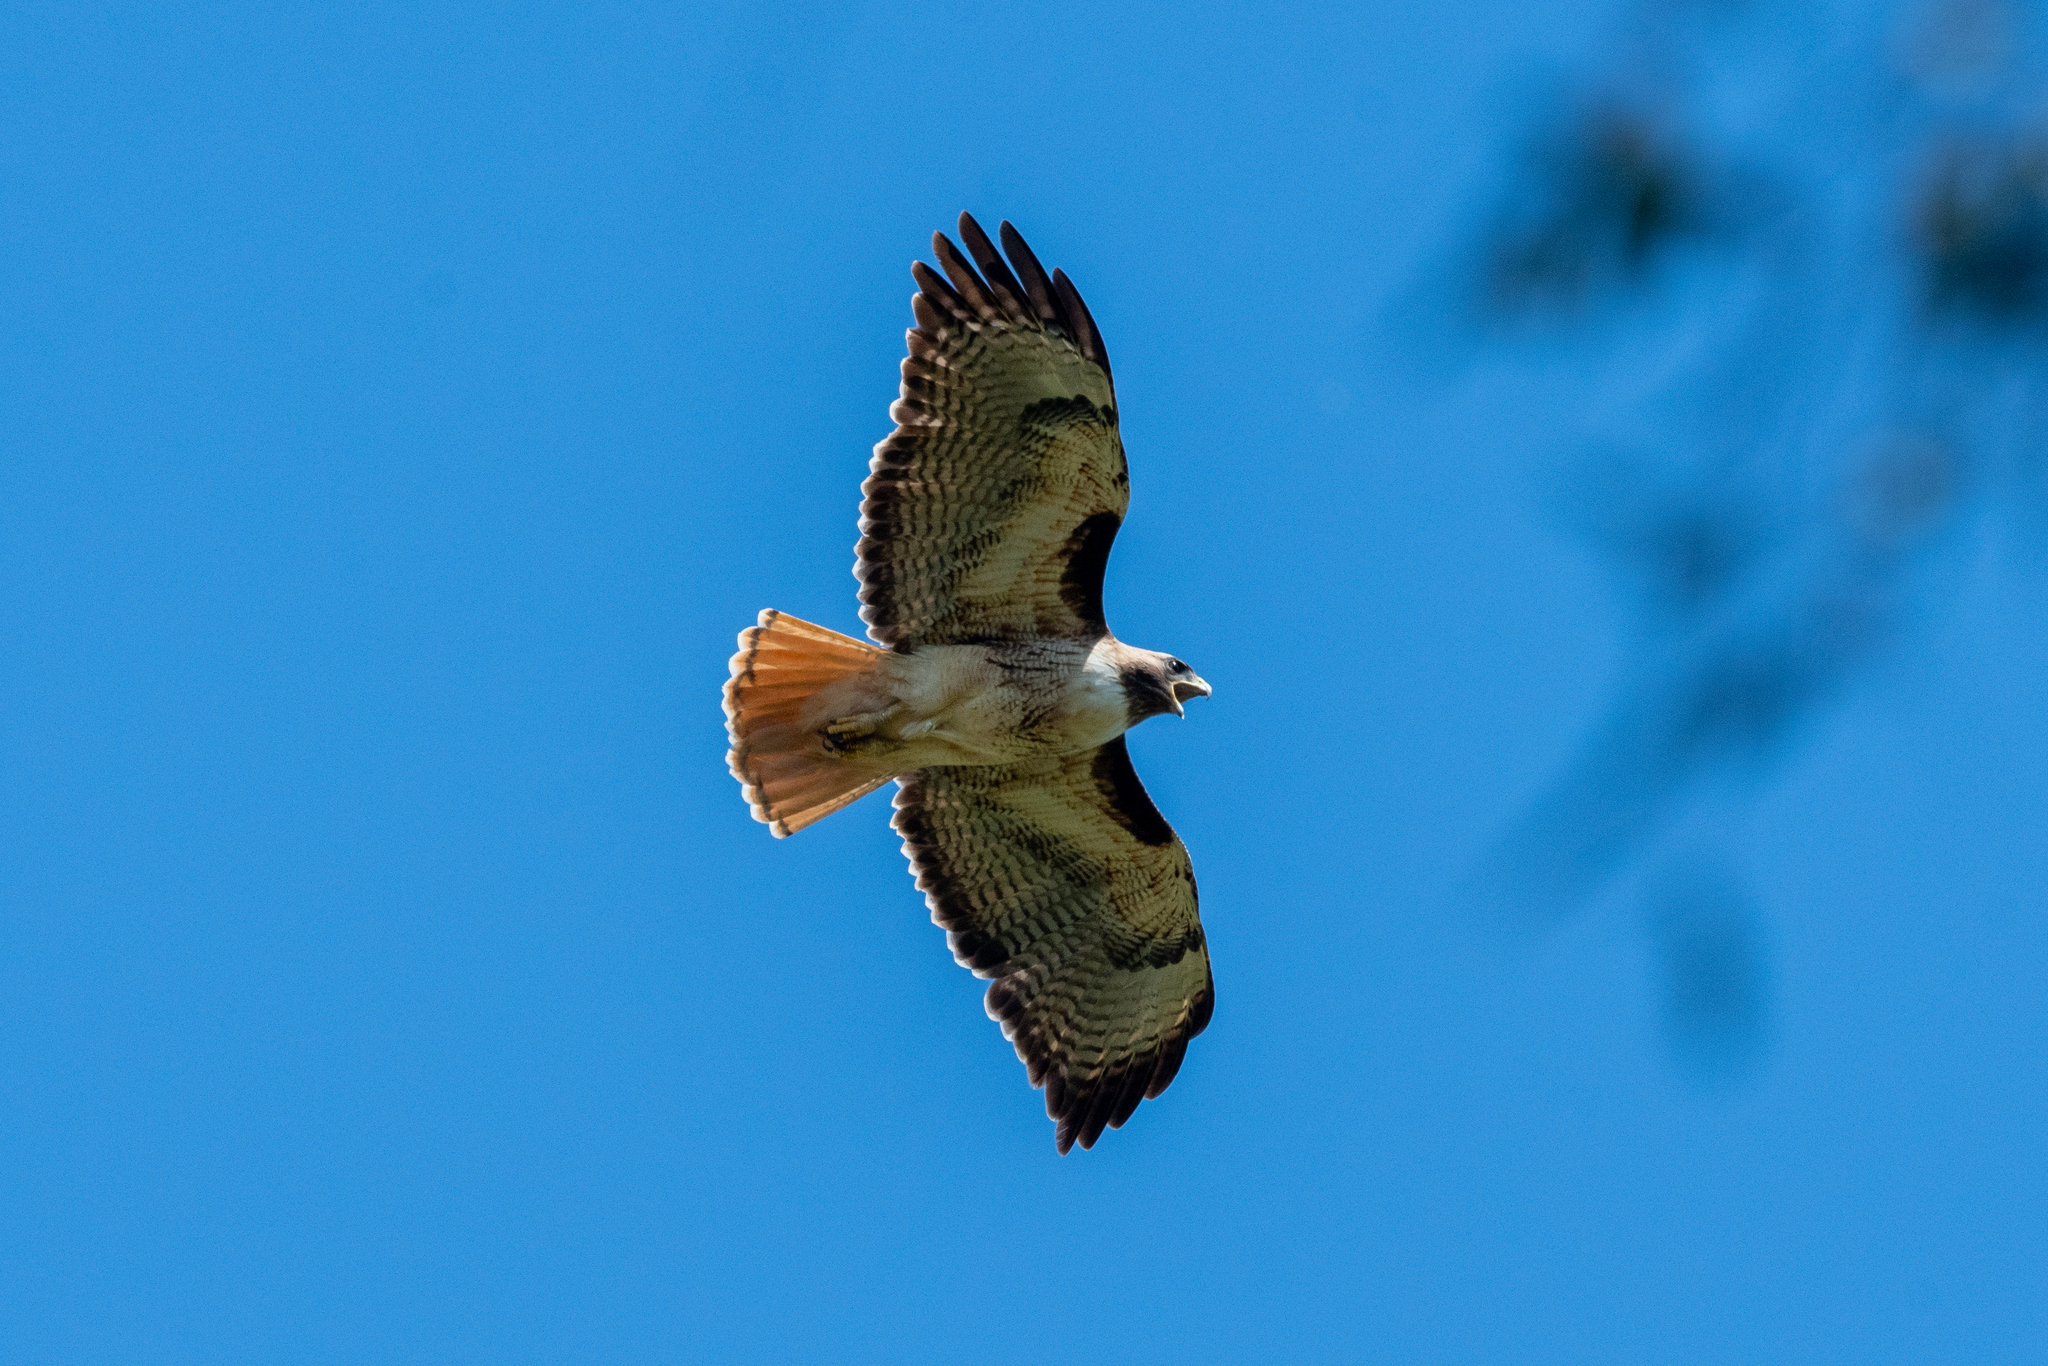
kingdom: Animalia
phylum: Chordata
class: Aves
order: Accipitriformes
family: Accipitridae
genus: Buteo
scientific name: Buteo jamaicensis
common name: Red-tailed hawk
